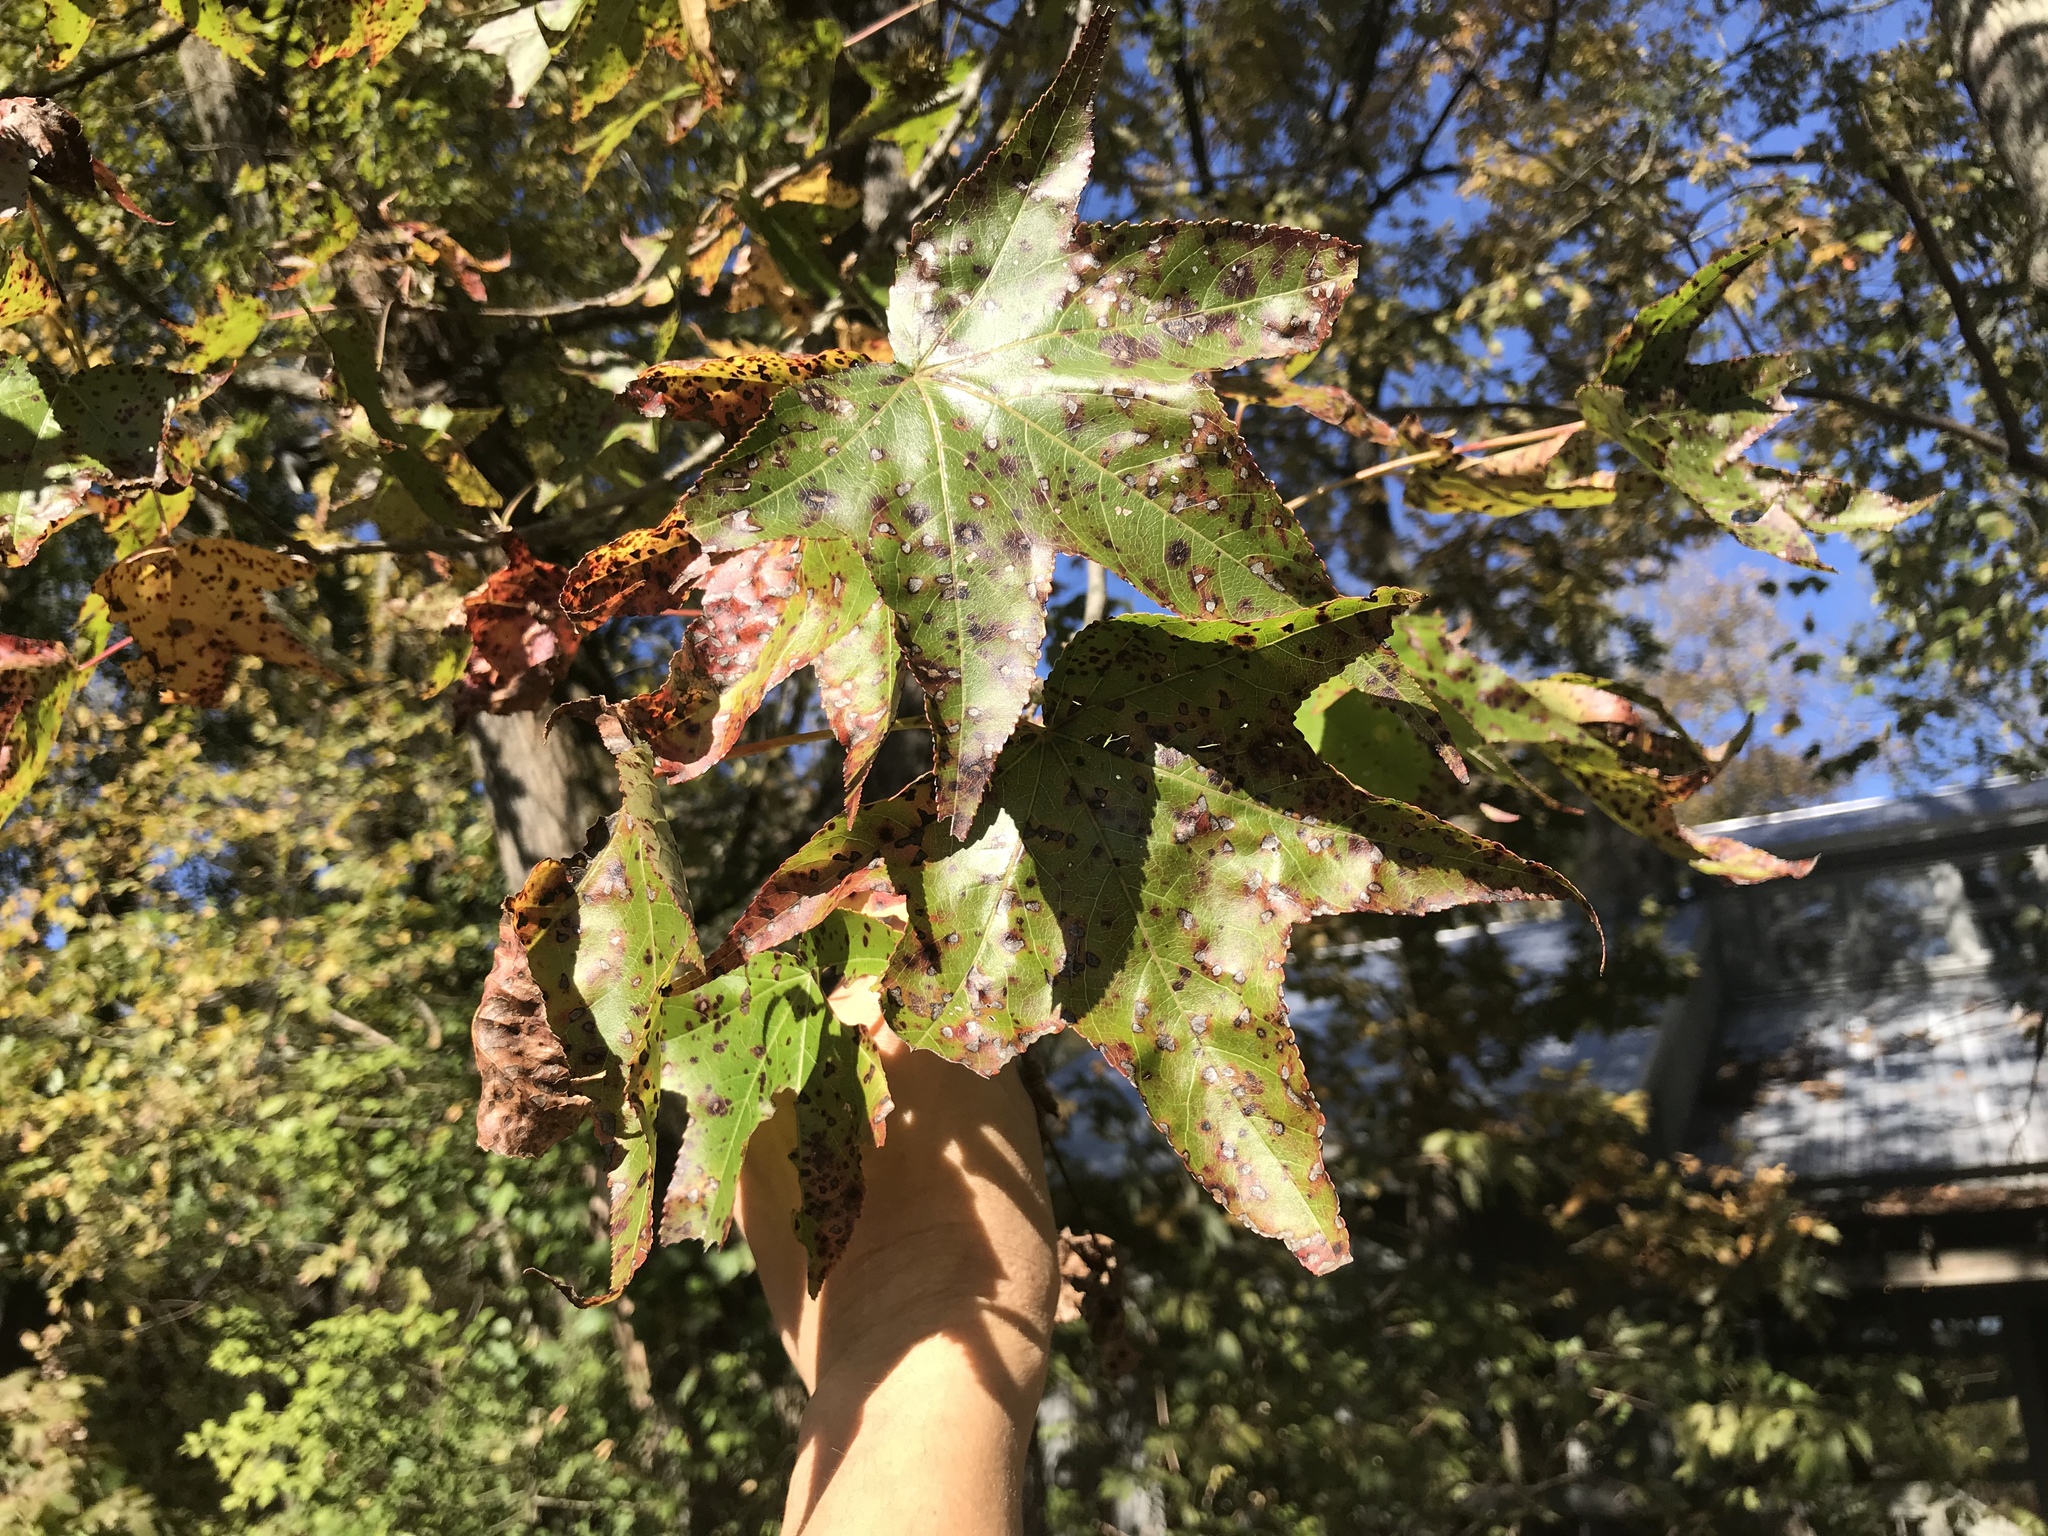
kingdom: Plantae
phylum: Tracheophyta
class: Magnoliopsida
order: Saxifragales
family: Altingiaceae
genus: Liquidambar
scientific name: Liquidambar styraciflua
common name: Sweet gum
